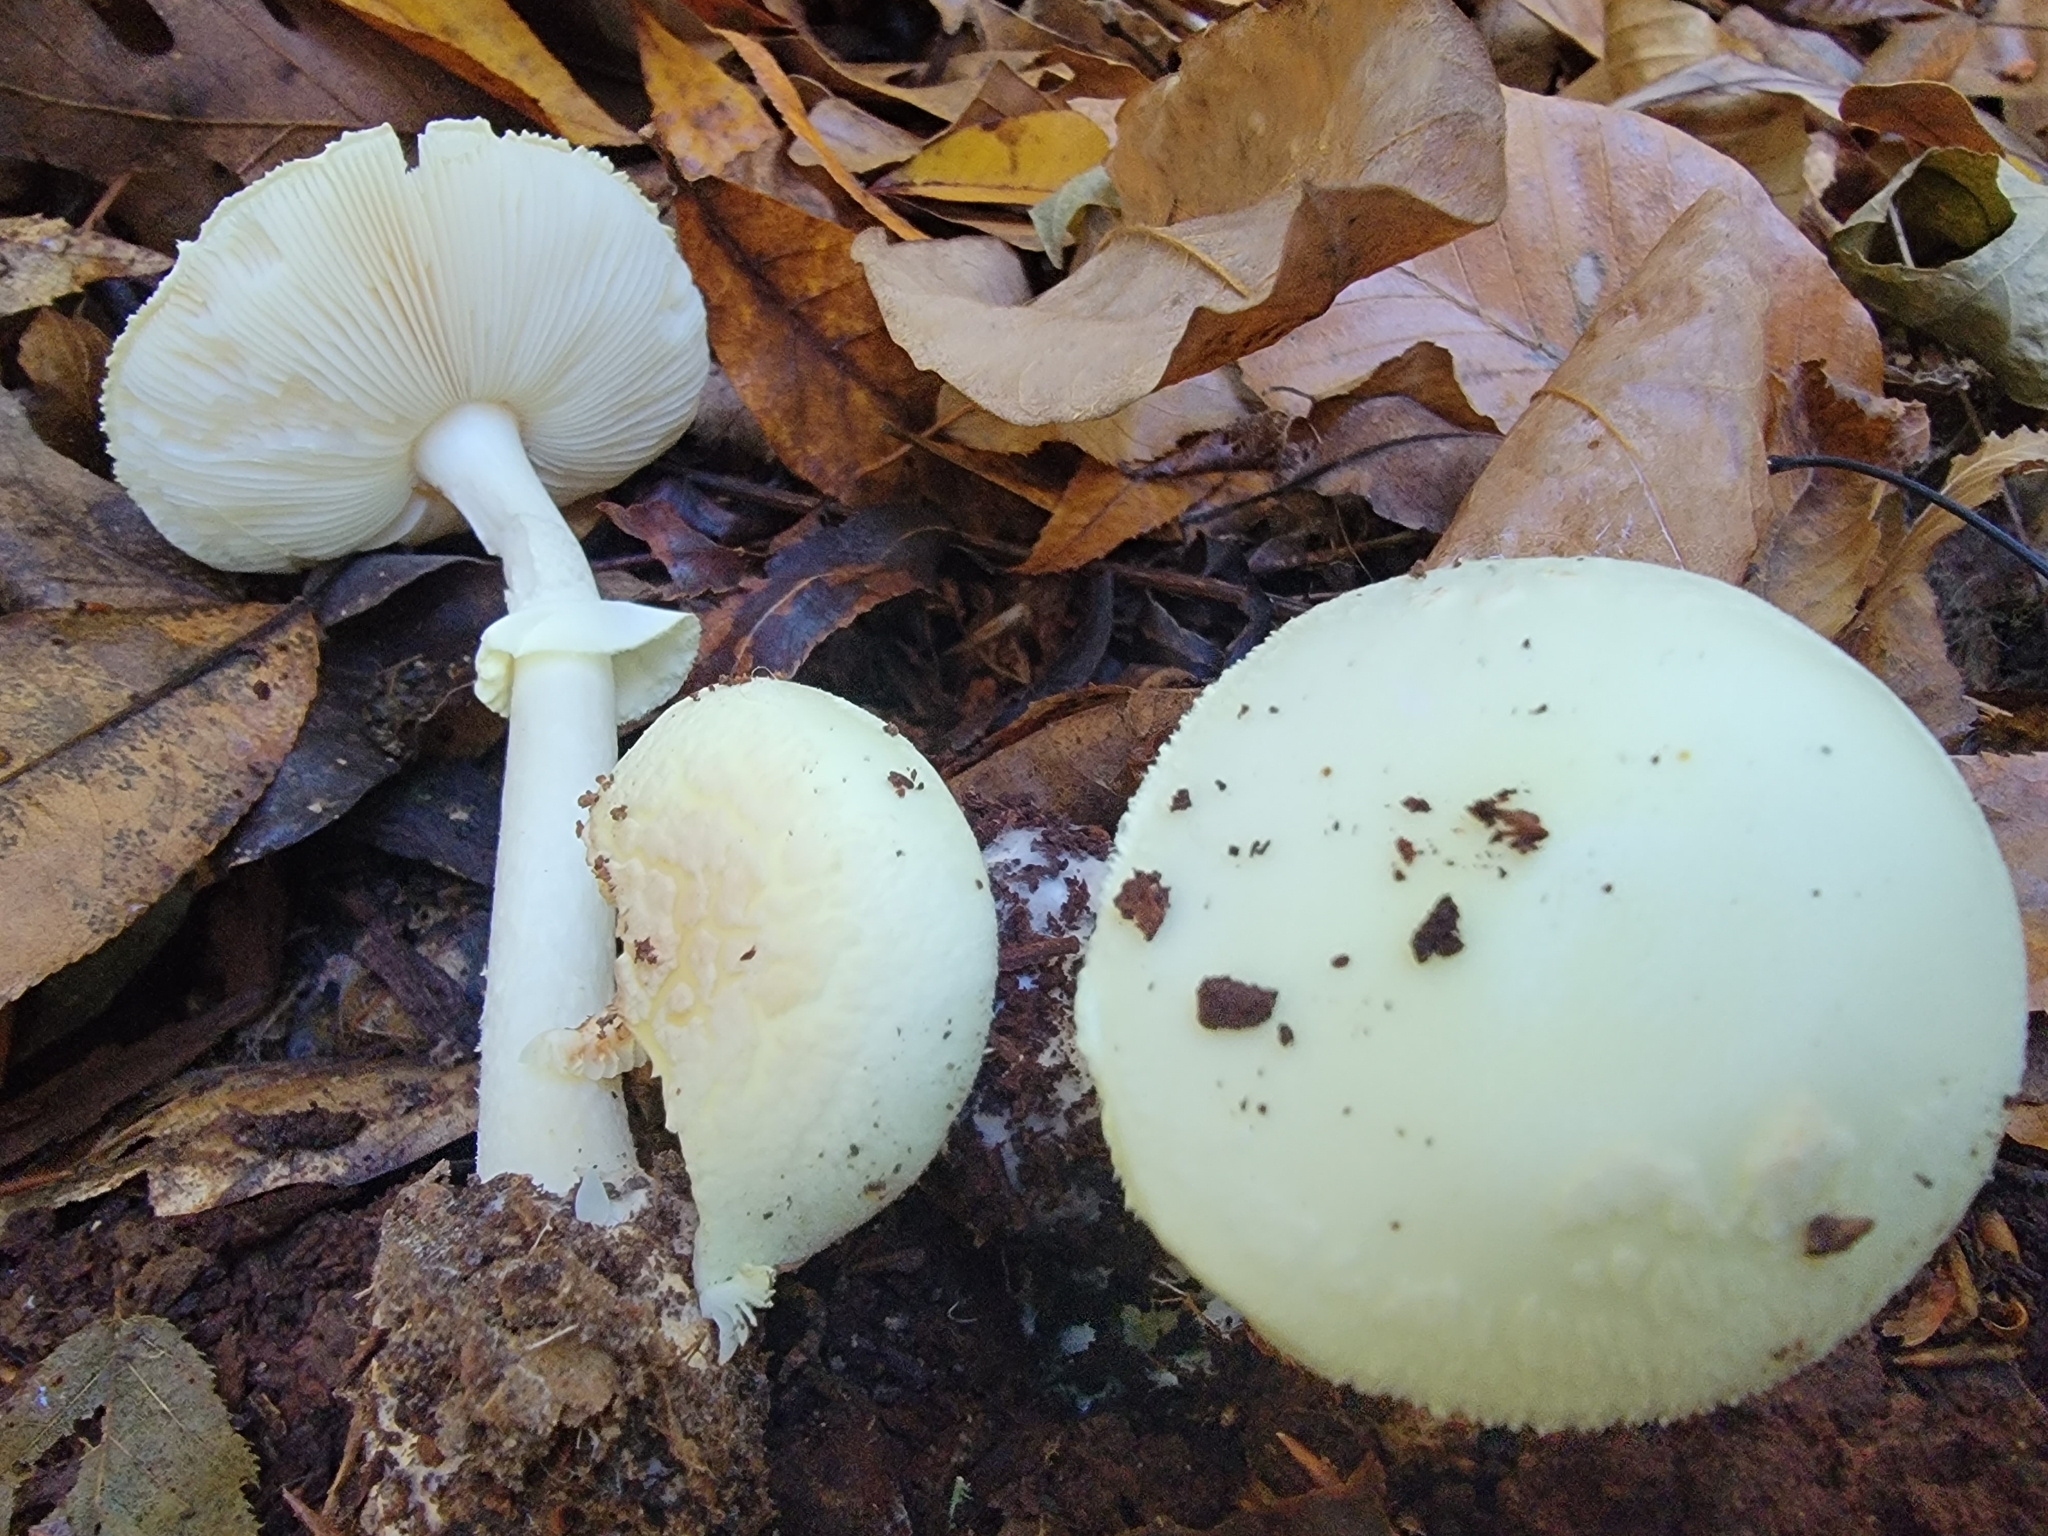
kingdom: Fungi
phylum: Basidiomycota
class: Agaricomycetes
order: Agaricales
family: Amanitaceae
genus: Amanita
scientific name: Amanita lavendula
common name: Coker's lavender staining amanita
